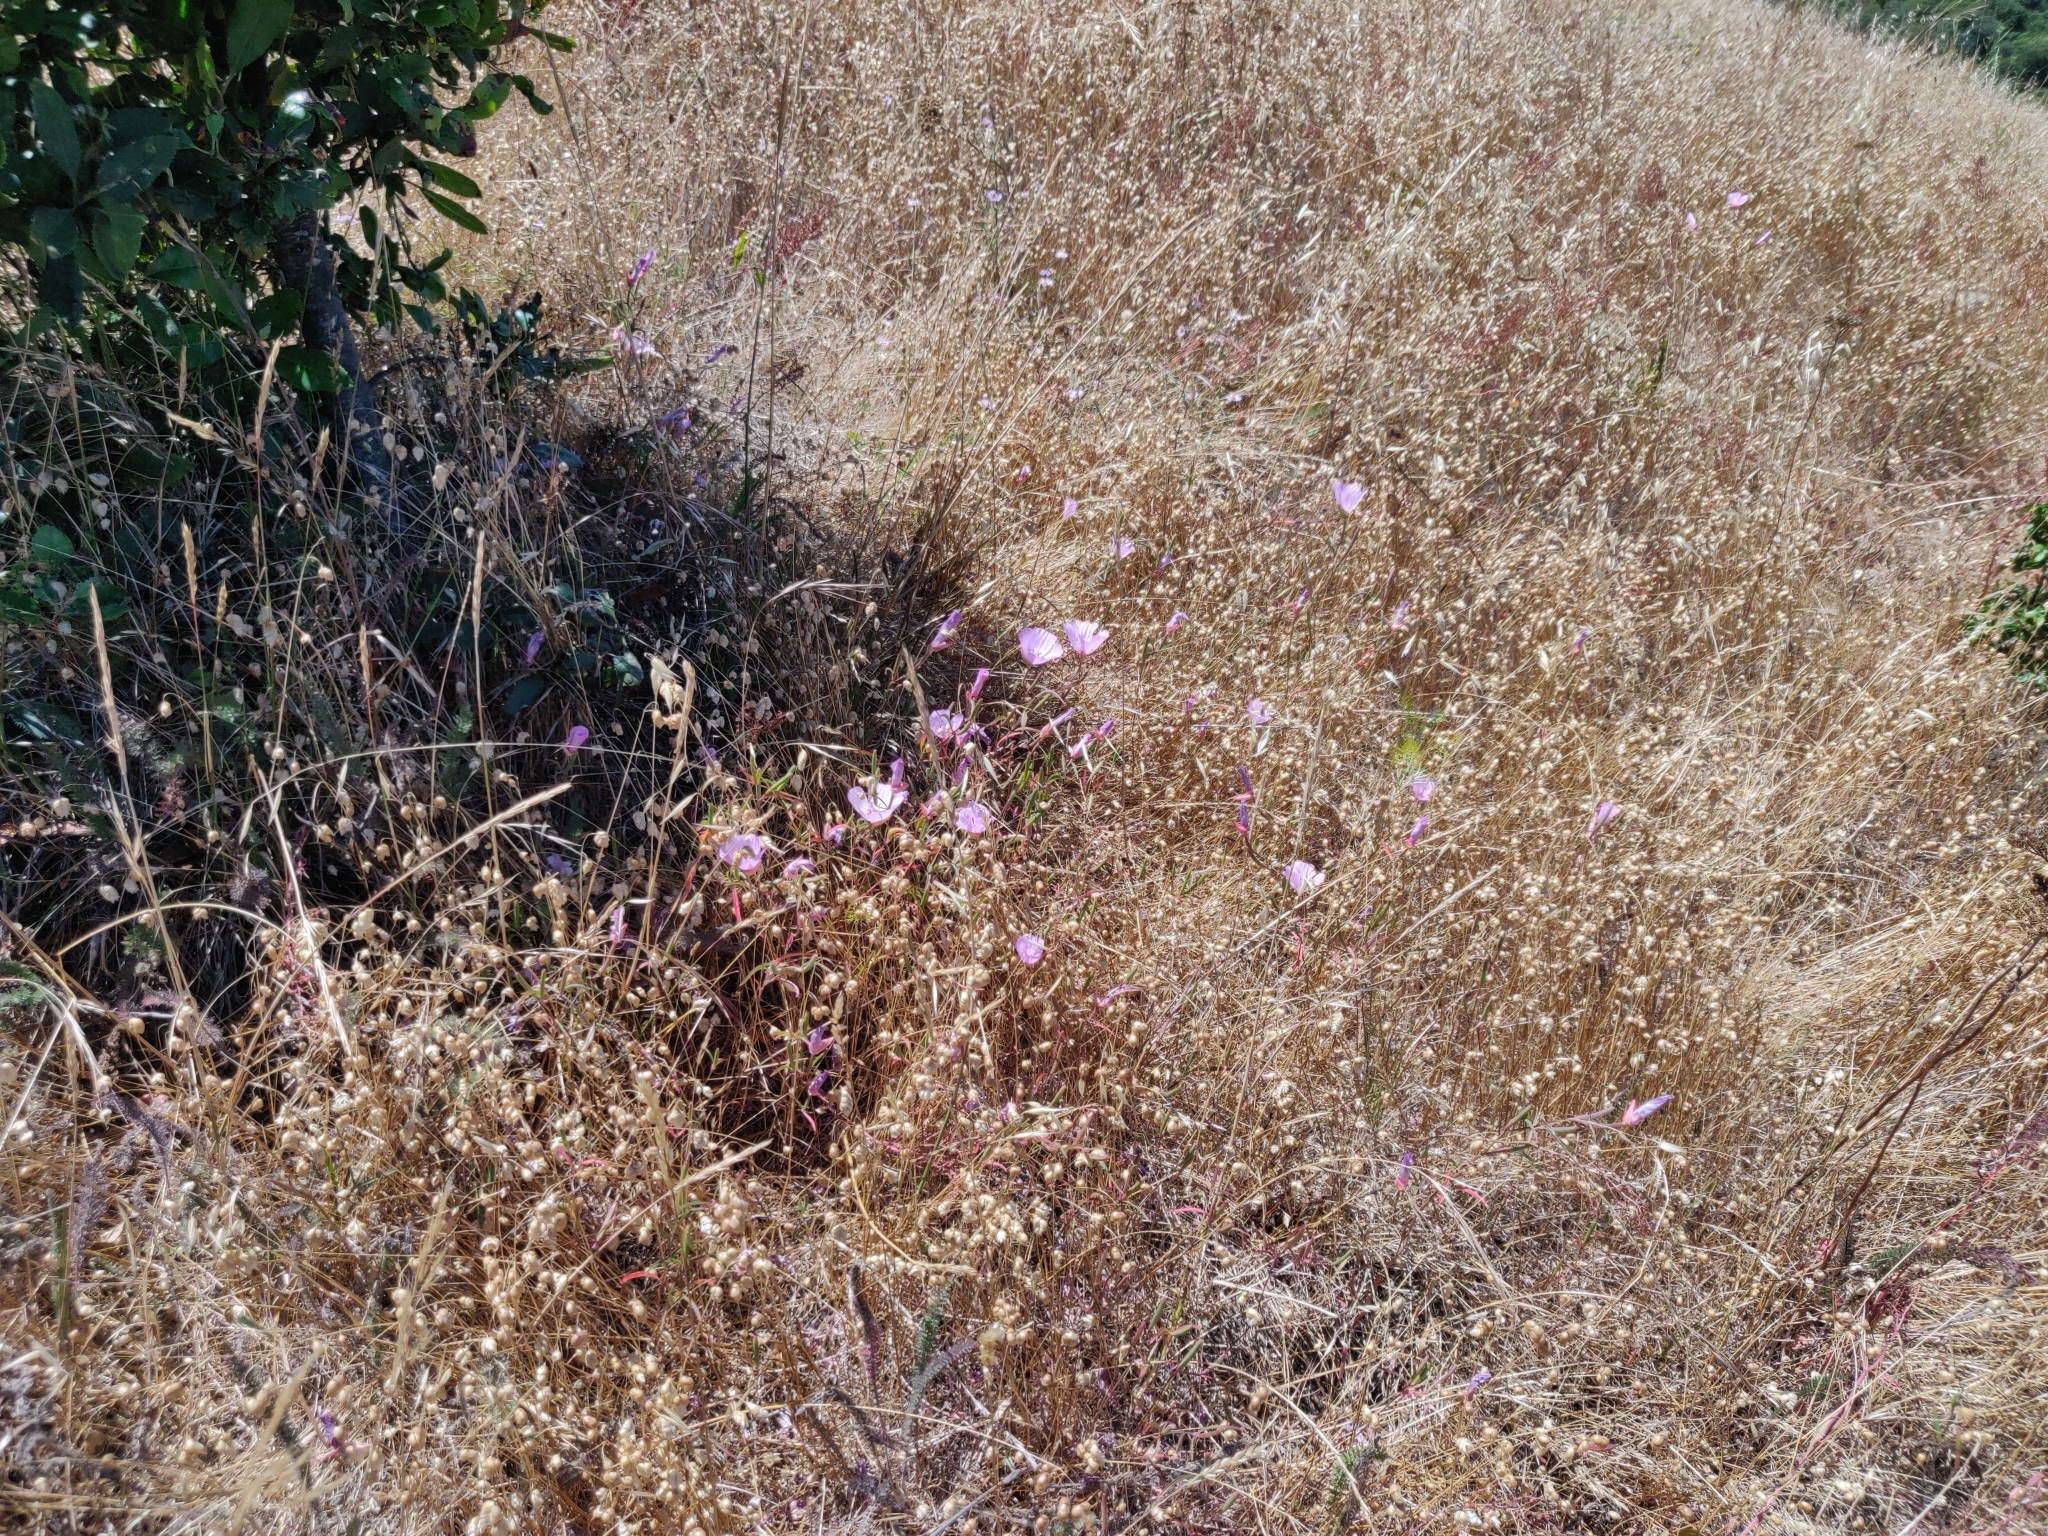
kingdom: Plantae
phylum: Tracheophyta
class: Magnoliopsida
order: Myrtales
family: Onagraceae
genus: Clarkia
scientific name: Clarkia rubicunda
